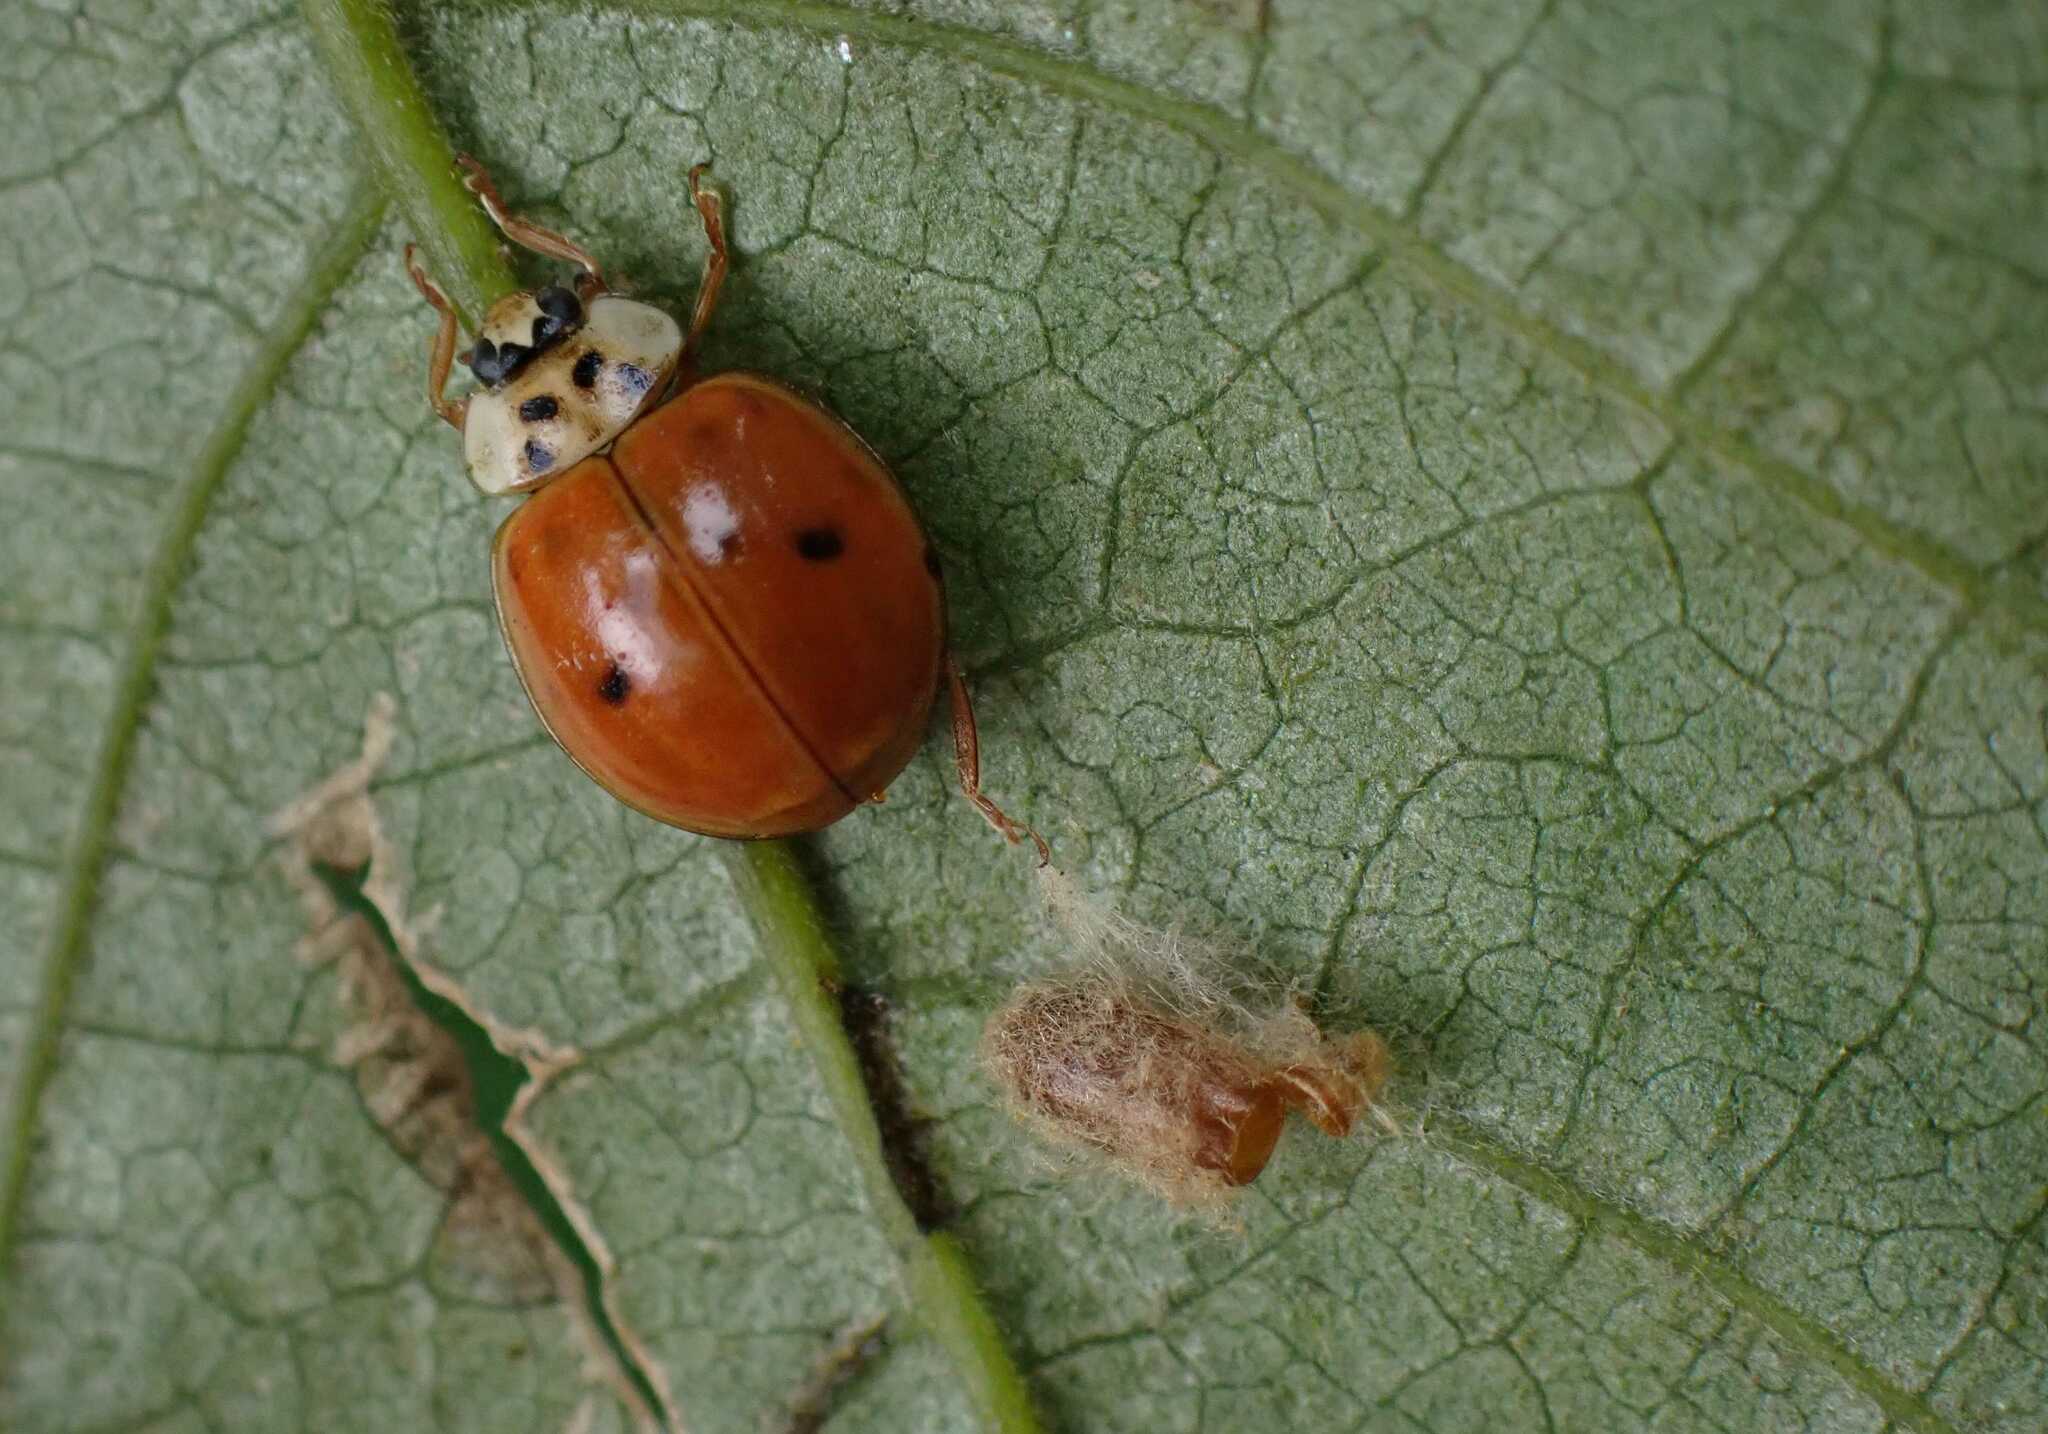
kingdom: Viruses
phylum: Pisuviricota
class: Pisoniviricetes
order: Picornavirales
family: Iflaviridae
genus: Iflavirus
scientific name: Iflavirus dinococcinellae
